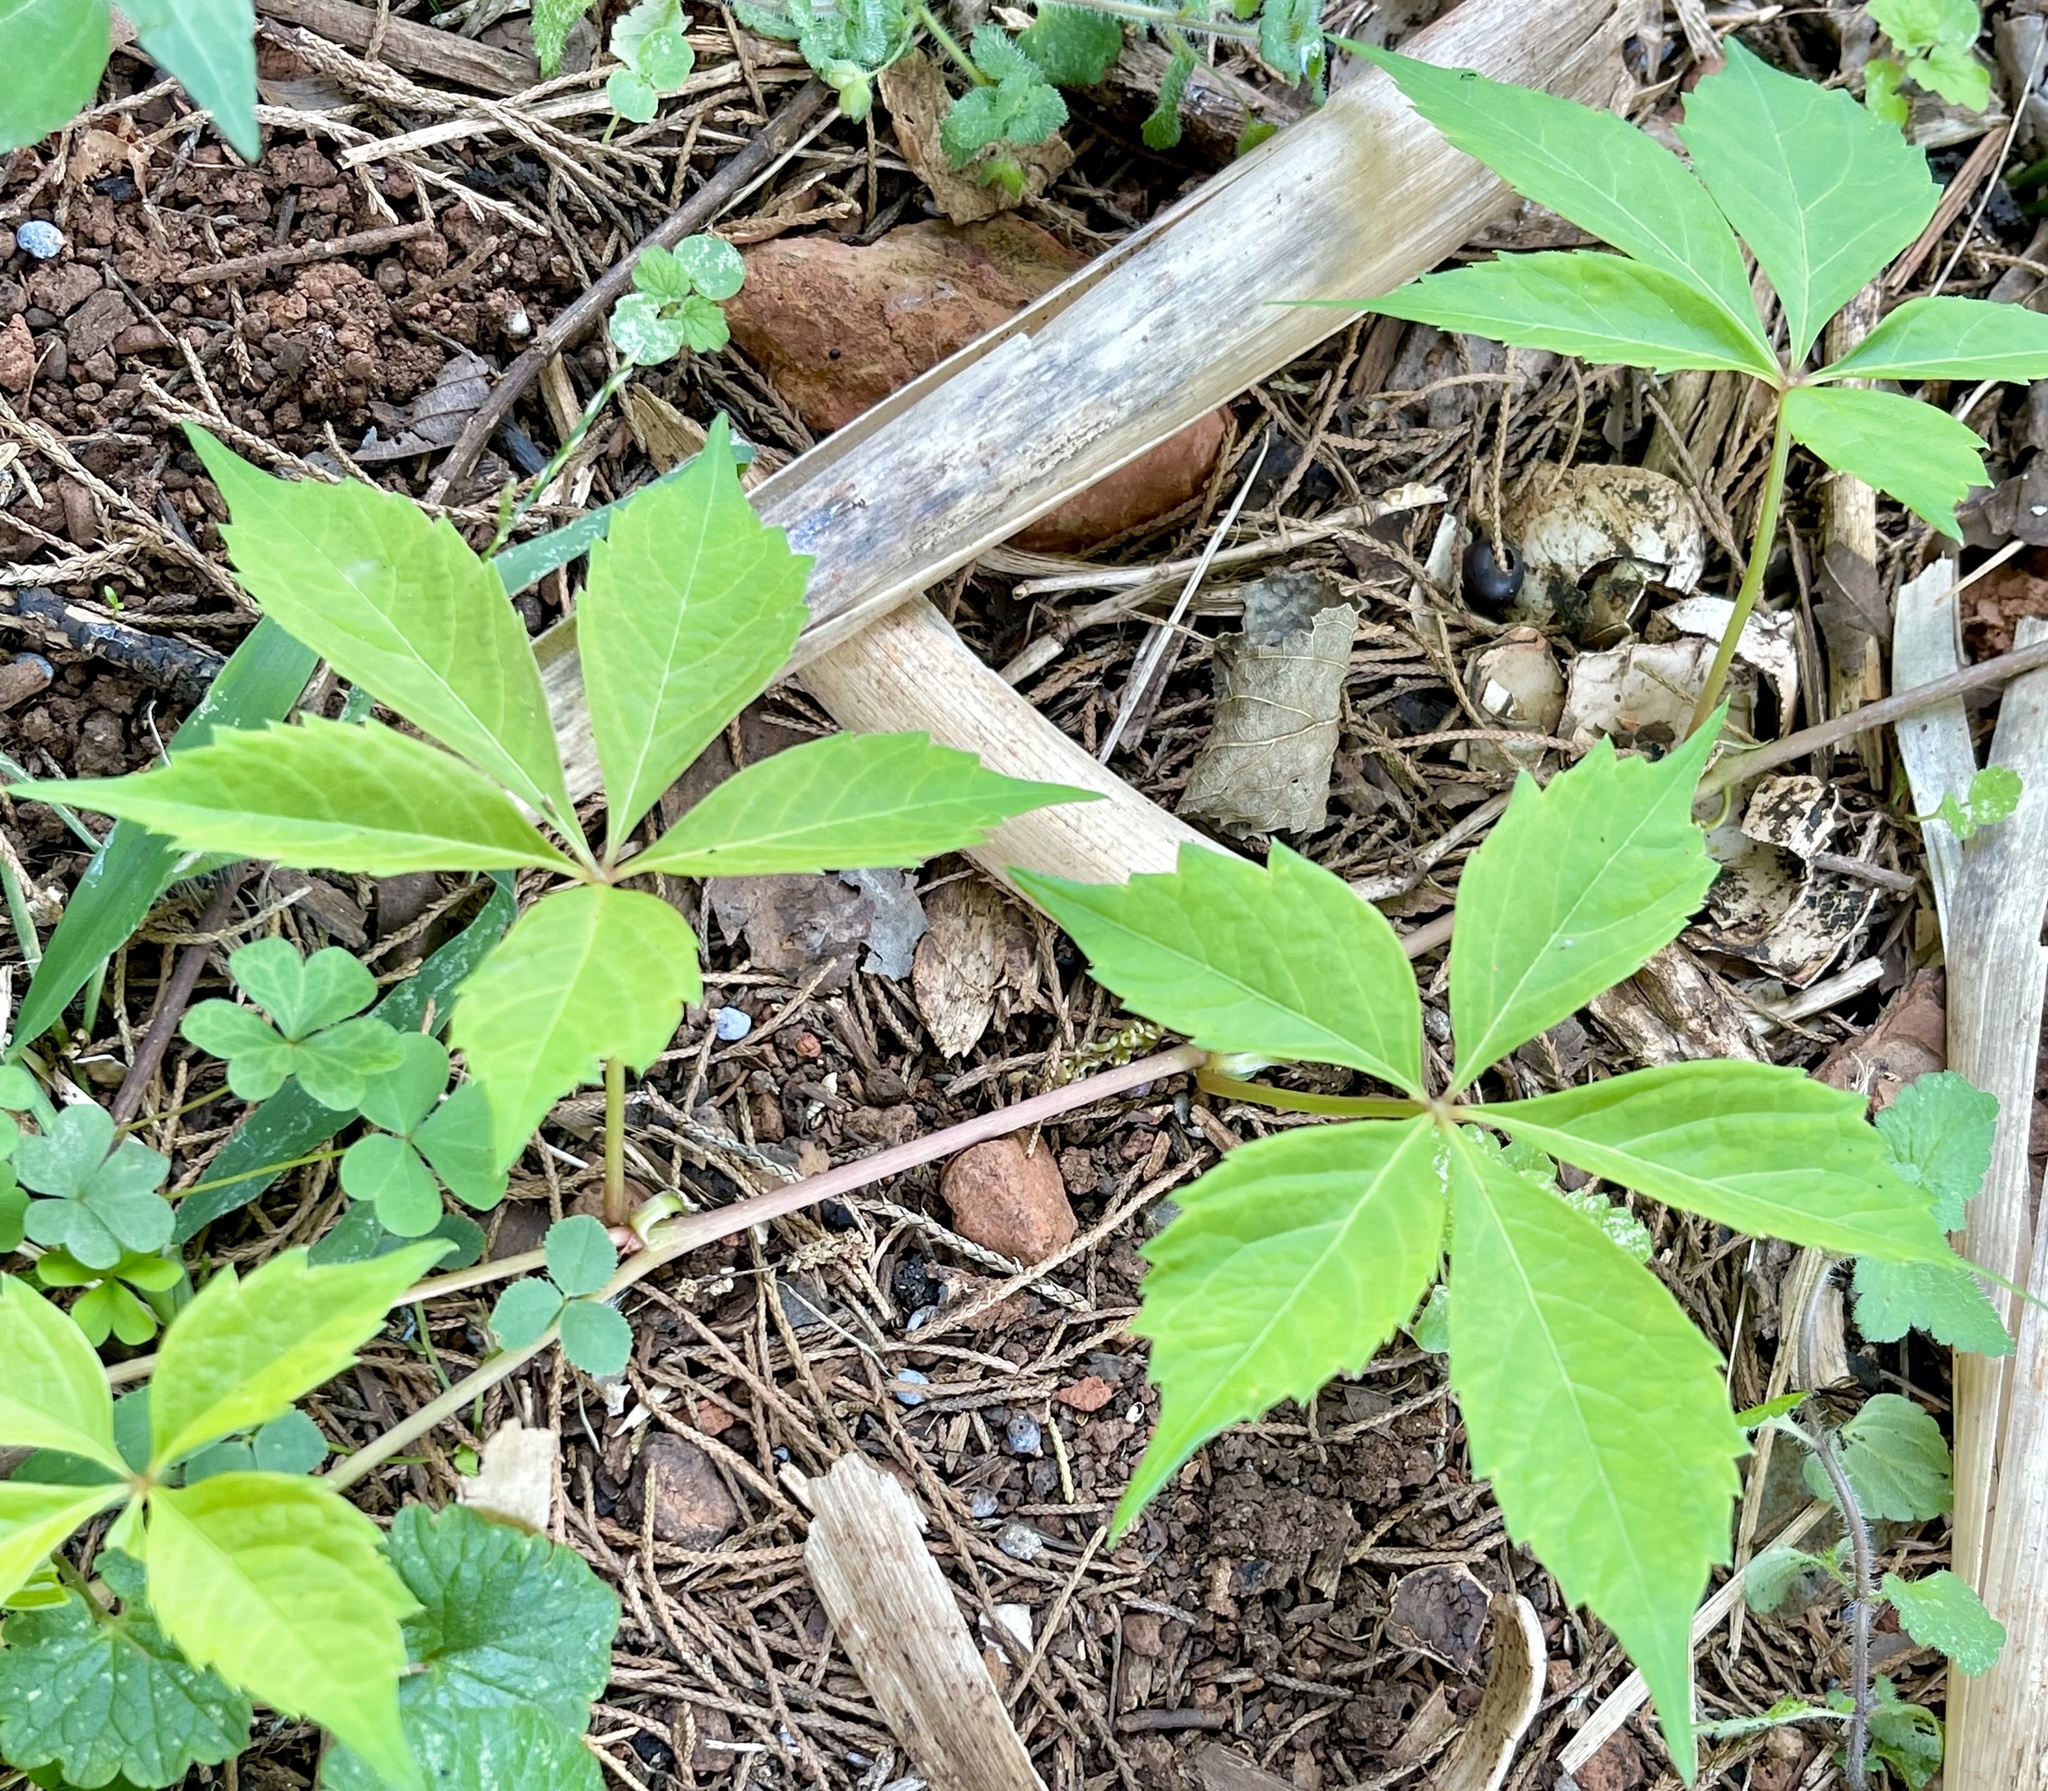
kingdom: Plantae
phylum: Tracheophyta
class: Magnoliopsida
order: Vitales
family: Vitaceae
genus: Parthenocissus
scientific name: Parthenocissus quinquefolia
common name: Virginia-creeper
